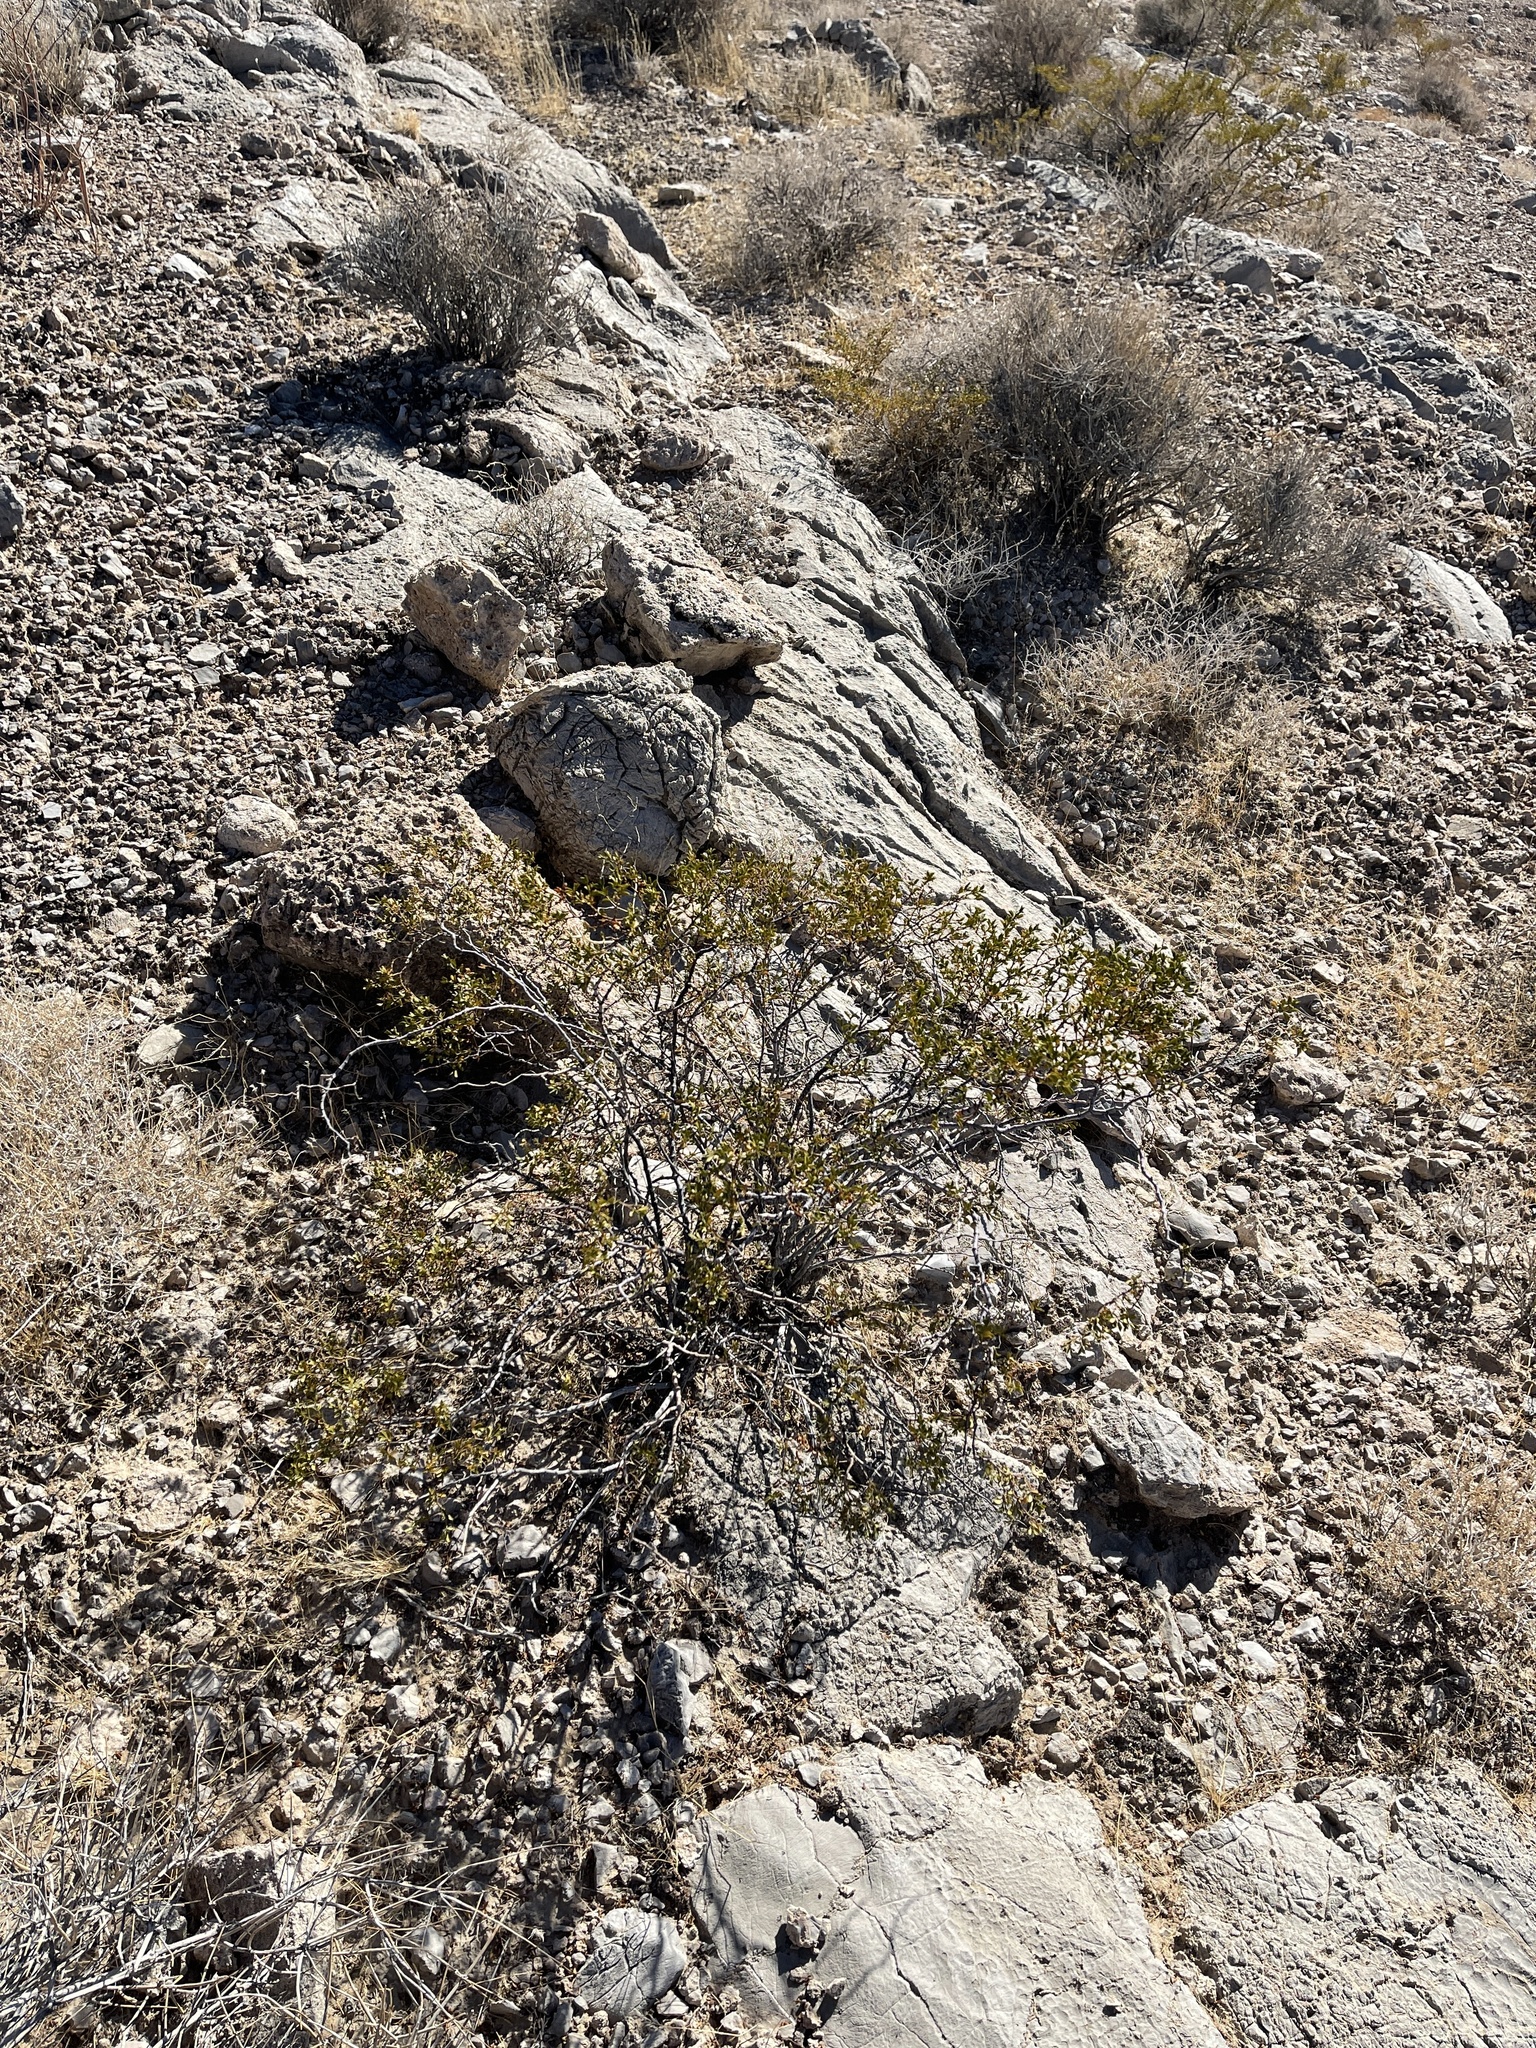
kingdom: Plantae
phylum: Tracheophyta
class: Magnoliopsida
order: Zygophyllales
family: Zygophyllaceae
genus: Larrea
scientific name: Larrea tridentata
